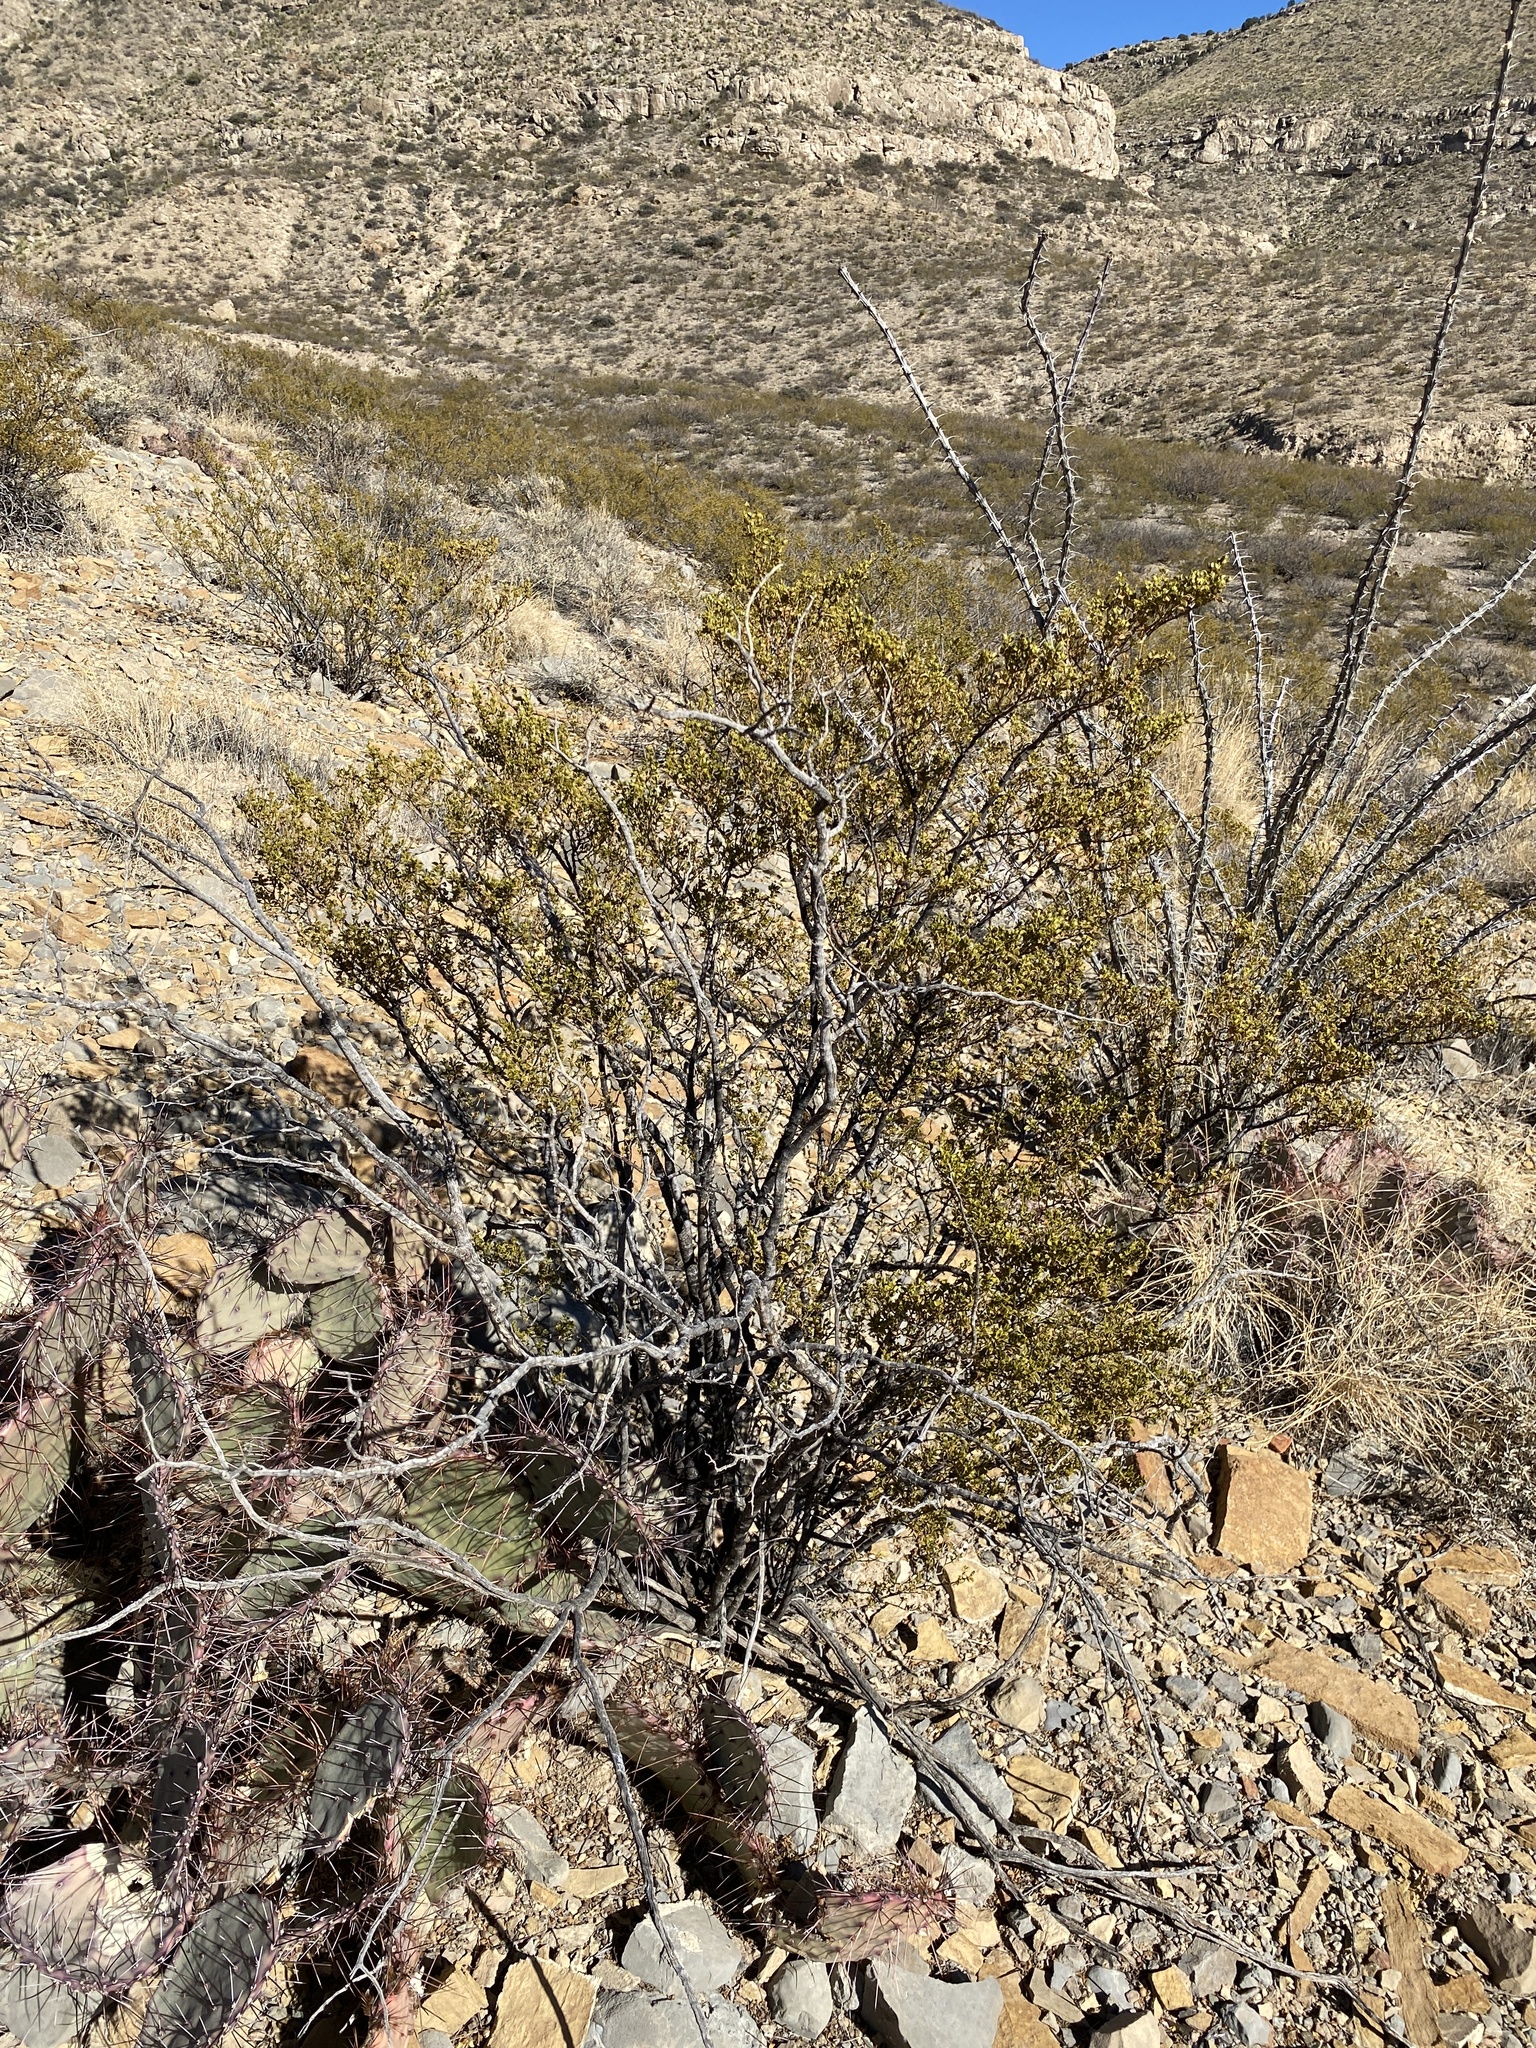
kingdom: Plantae
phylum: Tracheophyta
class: Magnoliopsida
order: Zygophyllales
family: Zygophyllaceae
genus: Larrea
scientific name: Larrea tridentata
